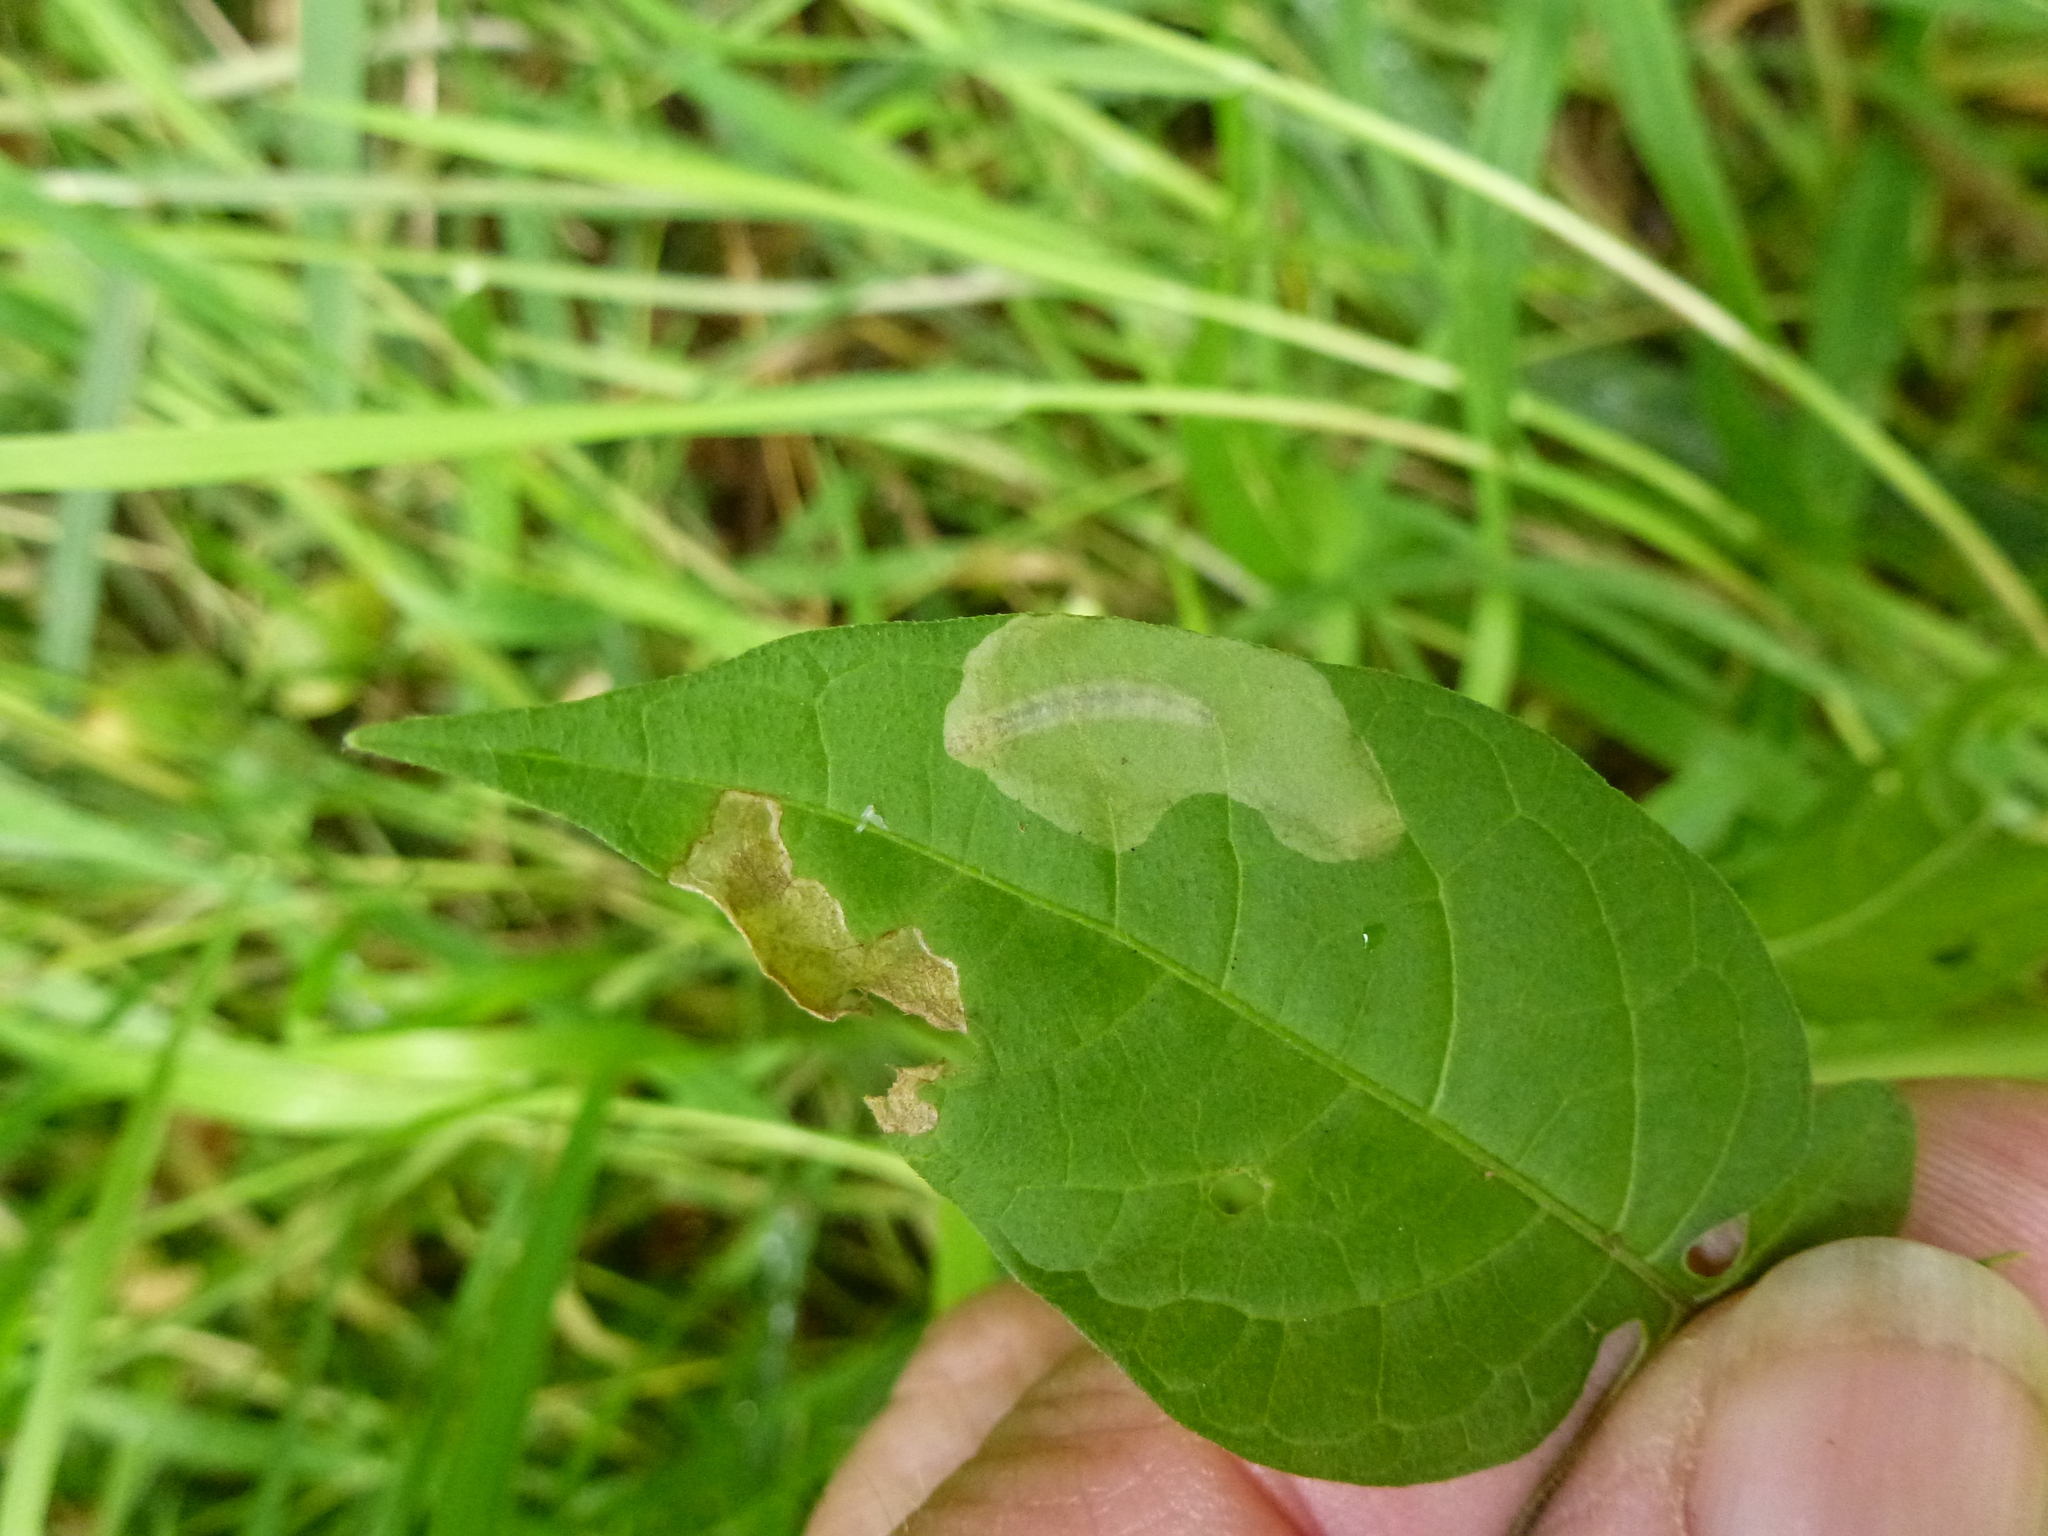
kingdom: Animalia
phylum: Arthropoda
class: Insecta
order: Lepidoptera
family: Glyphipterigidae
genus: Acrolepia
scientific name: Acrolepia pygmaeana
